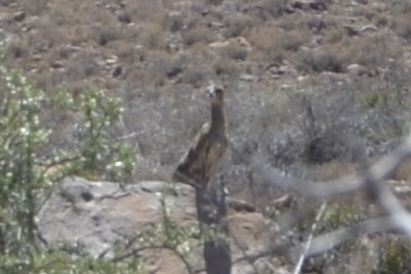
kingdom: Animalia
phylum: Chordata
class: Mammalia
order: Artiodactyla
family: Bovidae
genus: Oreotragus
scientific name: Oreotragus oreotragus
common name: Klipspringer
